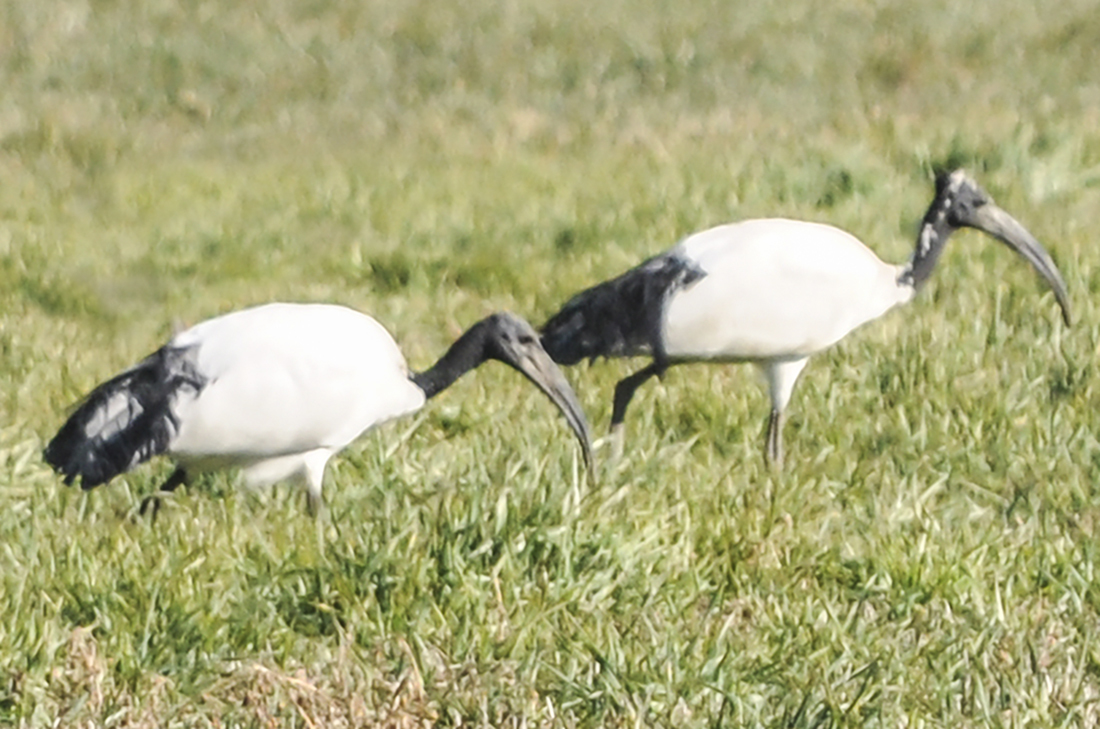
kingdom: Animalia
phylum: Chordata
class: Aves
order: Pelecaniformes
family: Threskiornithidae
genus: Threskiornis
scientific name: Threskiornis aethiopicus
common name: Sacred ibis
